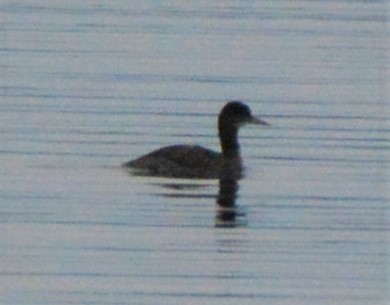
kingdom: Animalia
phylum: Chordata
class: Aves
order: Podicipediformes
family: Podicipedidae
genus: Podiceps
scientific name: Podiceps grisegena
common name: Red-necked grebe
